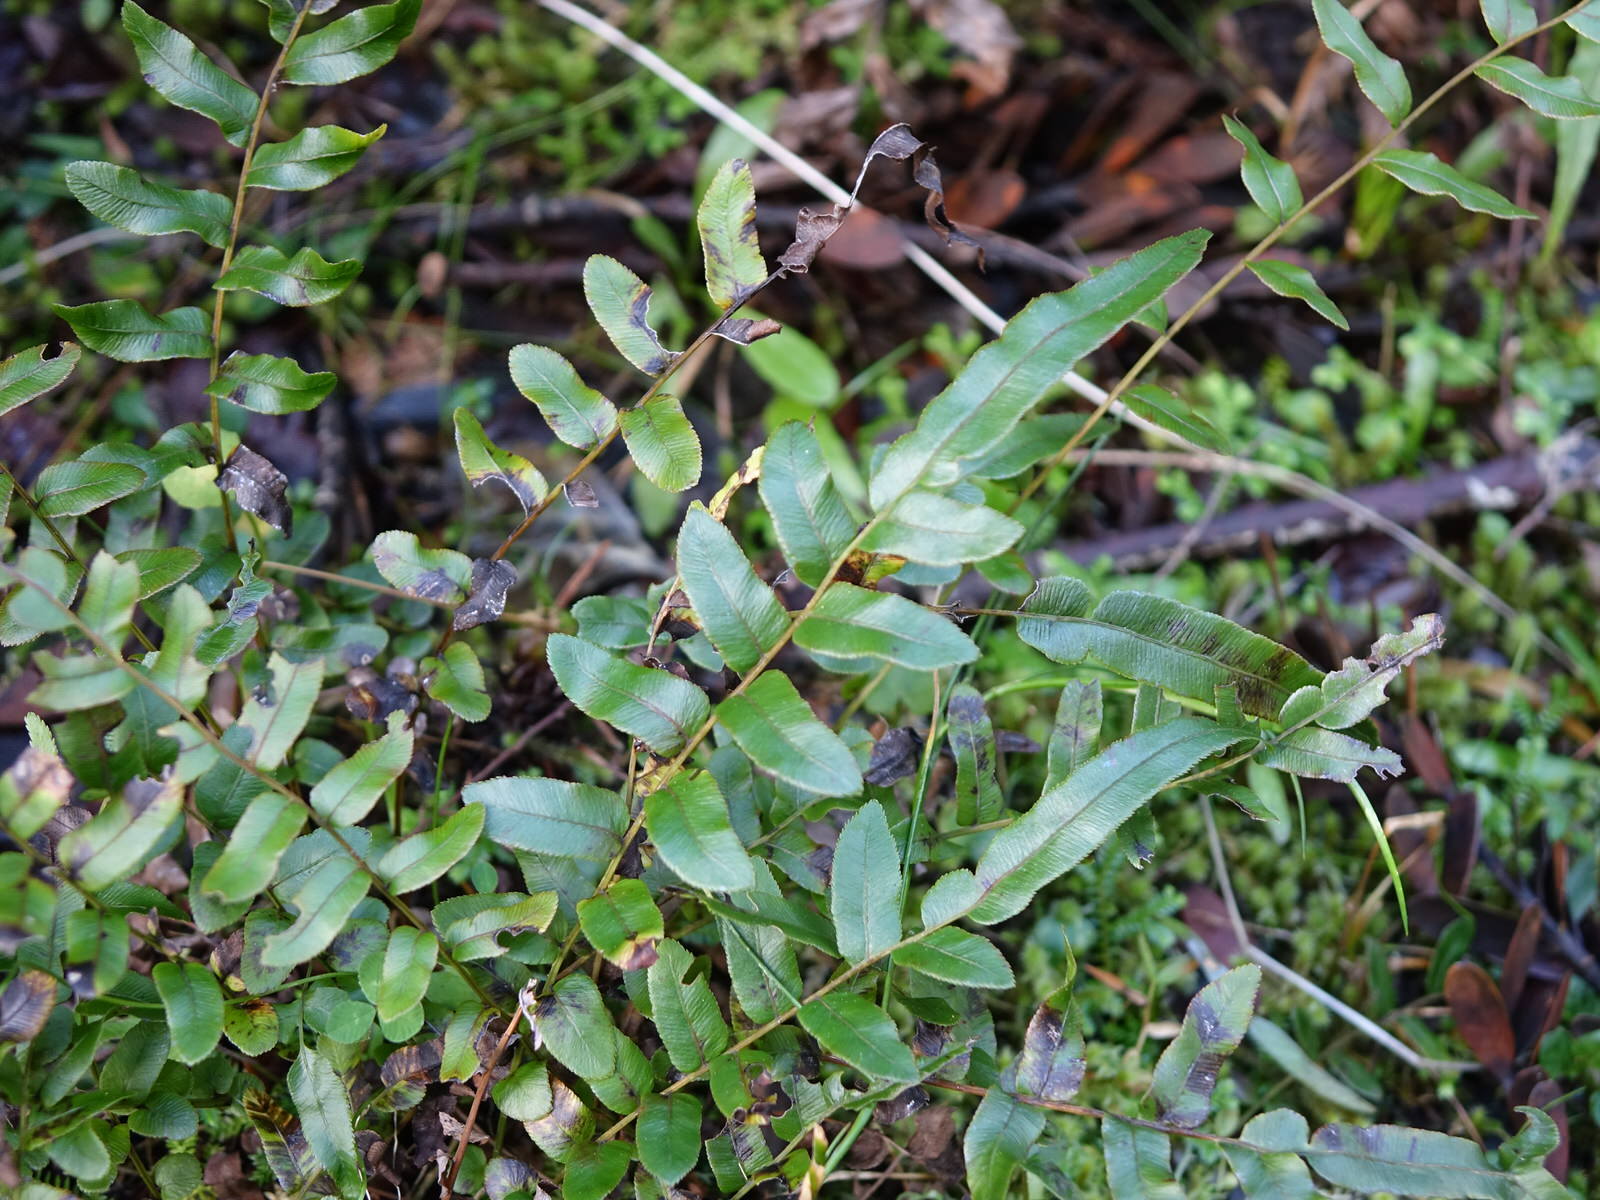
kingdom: Plantae
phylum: Tracheophyta
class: Polypodiopsida
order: Polypodiales
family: Blechnaceae
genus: Parablechnum
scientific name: Parablechnum minus
